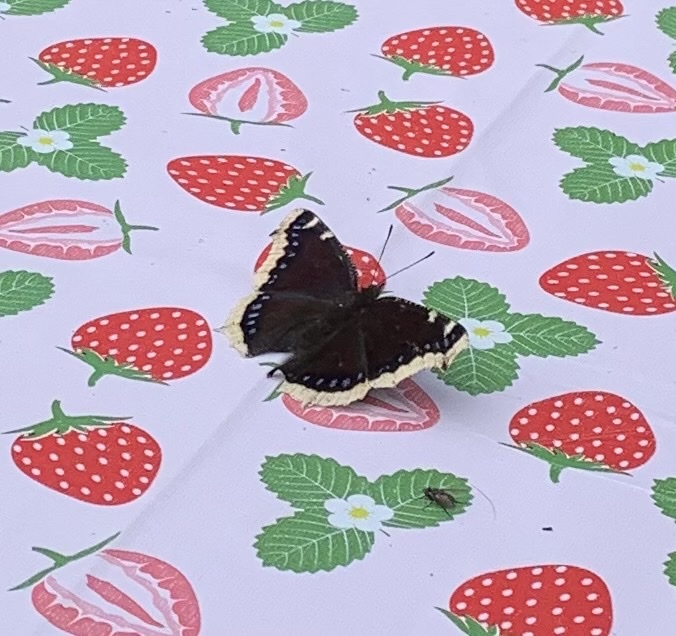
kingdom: Animalia
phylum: Arthropoda
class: Insecta
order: Lepidoptera
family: Nymphalidae
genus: Nymphalis
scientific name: Nymphalis antiopa
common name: Camberwell beauty
